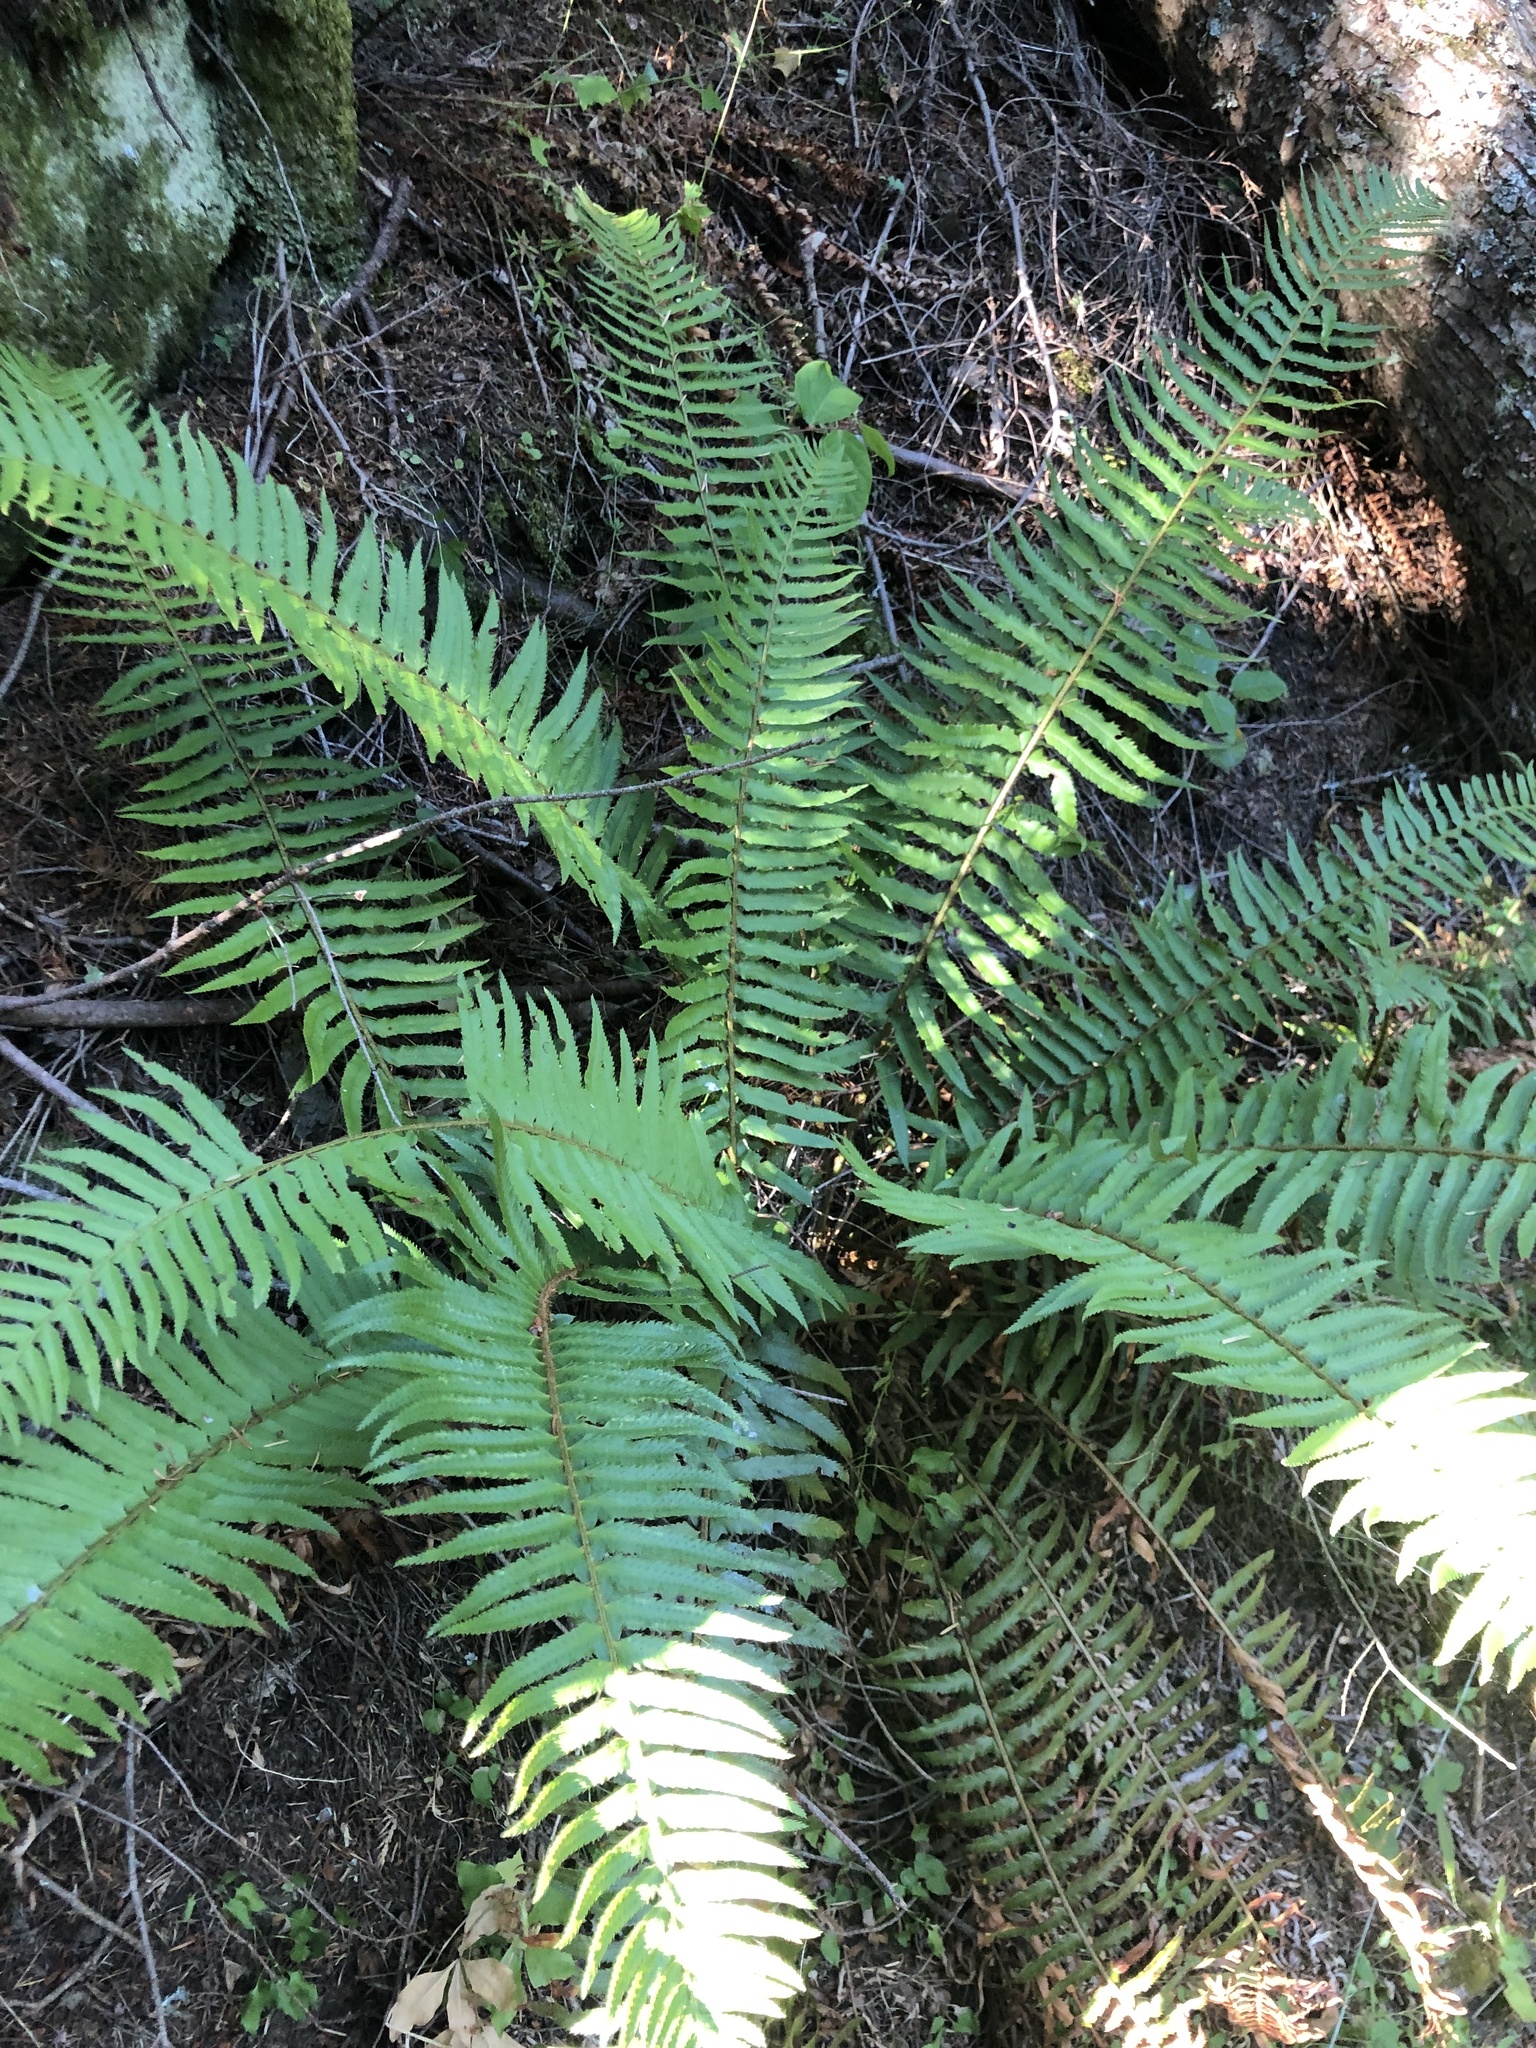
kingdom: Plantae
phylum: Tracheophyta
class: Polypodiopsida
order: Polypodiales
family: Dryopteridaceae
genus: Polystichum
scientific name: Polystichum munitum
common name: Western sword-fern
